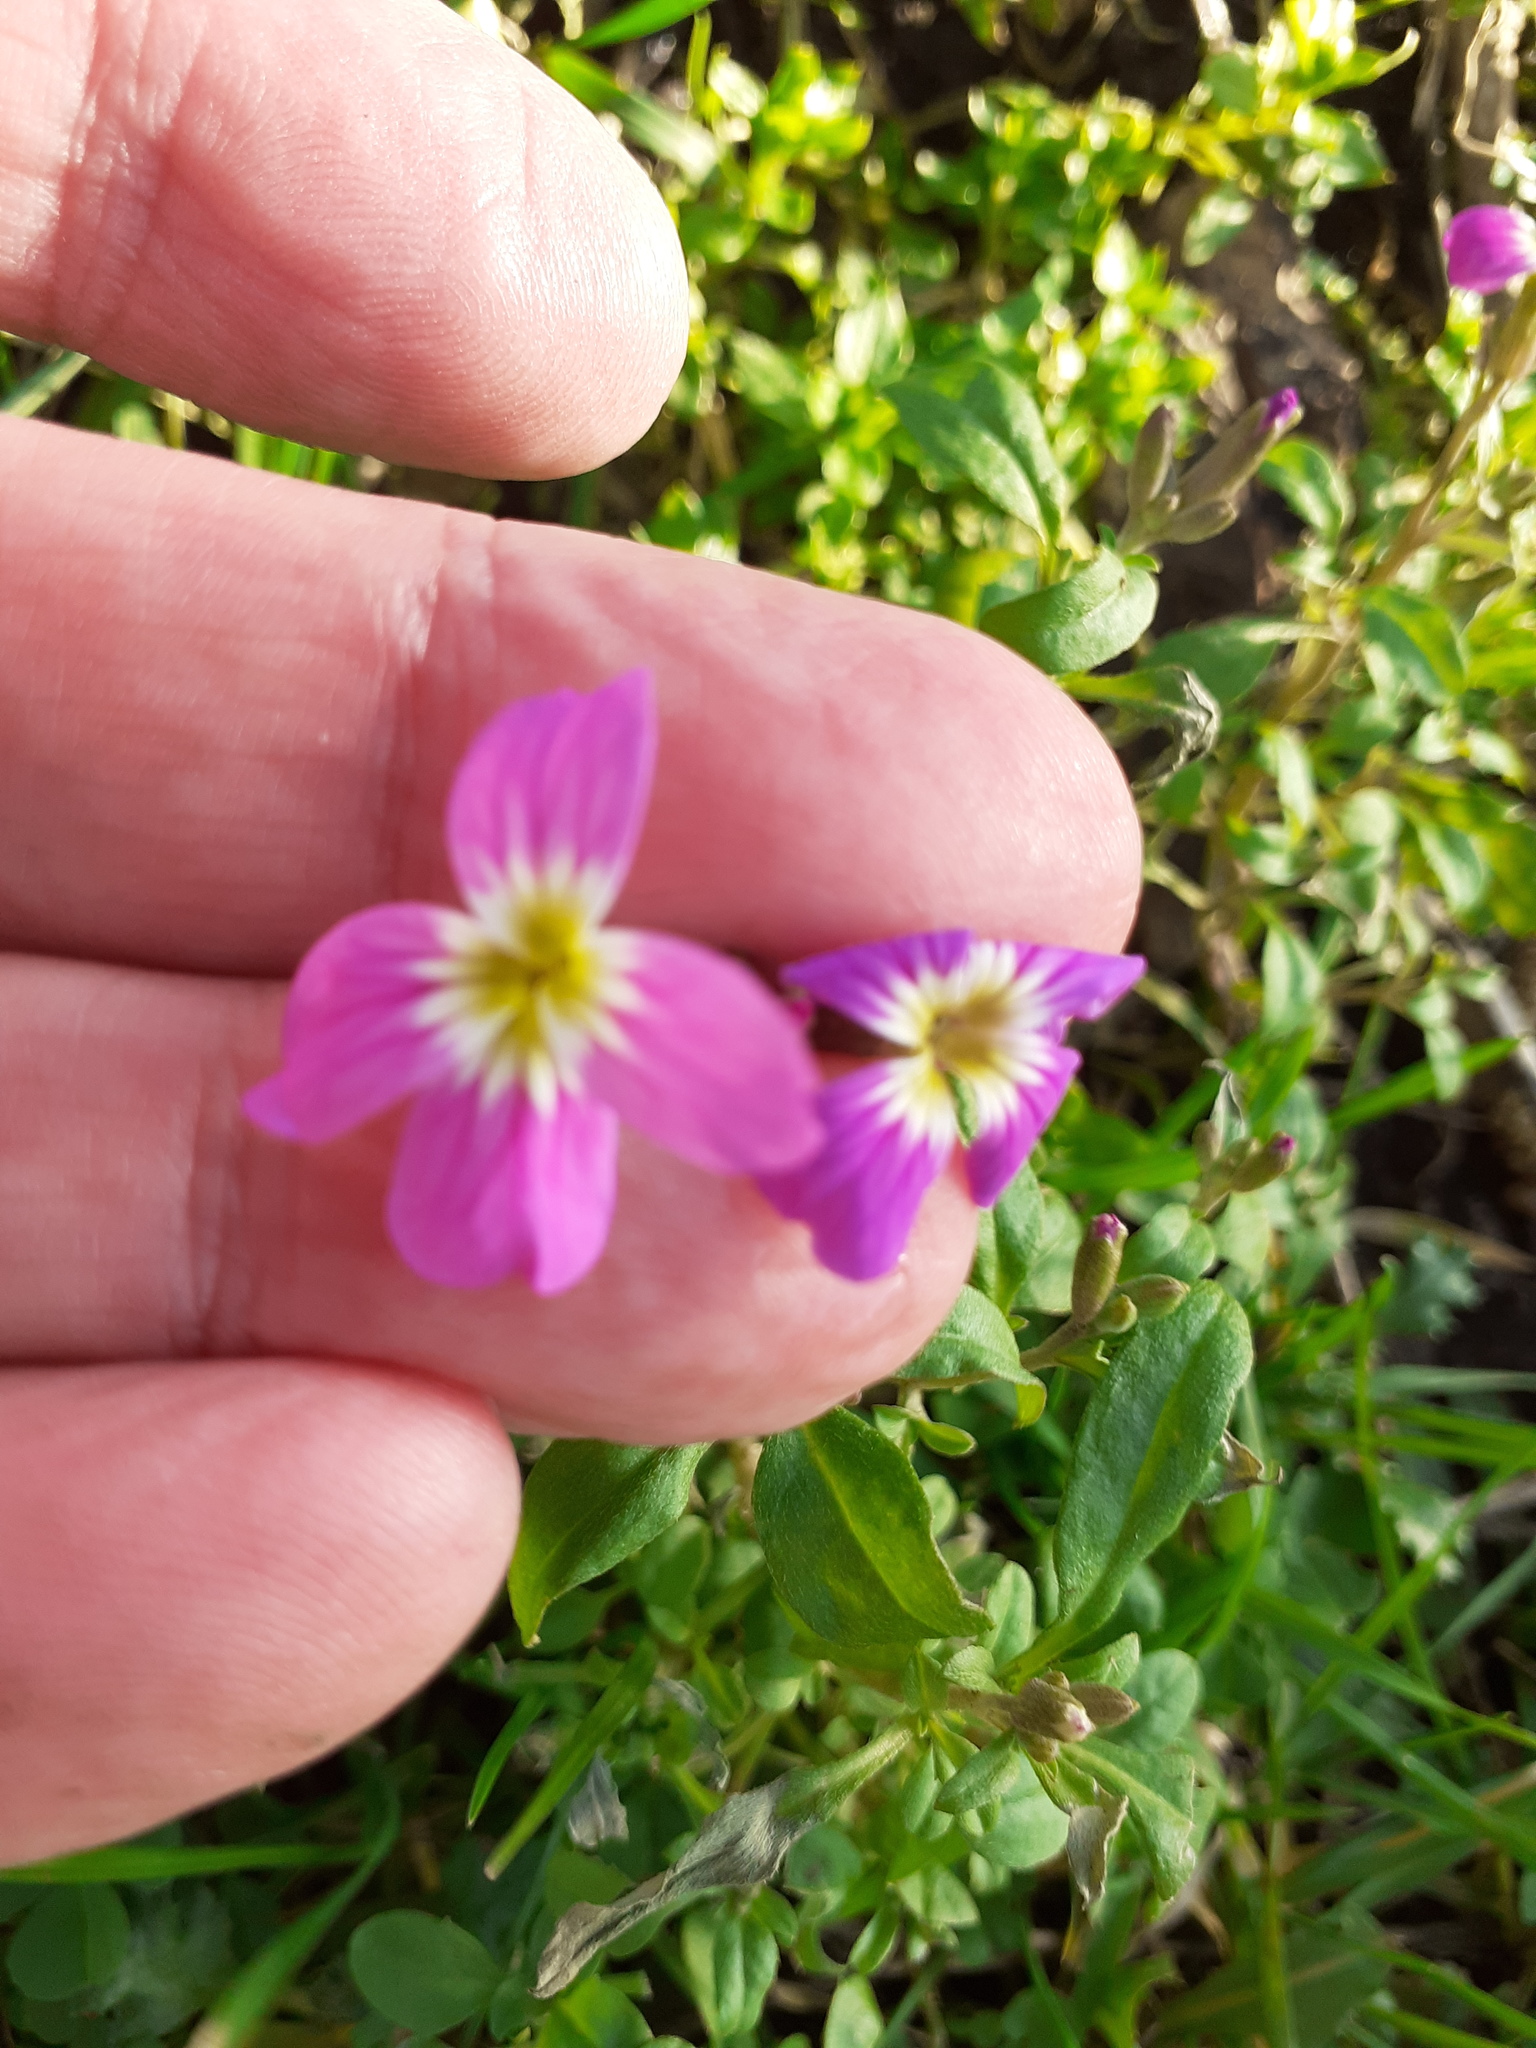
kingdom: Plantae
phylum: Tracheophyta
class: Magnoliopsida
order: Brassicales
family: Brassicaceae
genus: Malcolmia
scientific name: Malcolmia maritima
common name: Virginia stock
